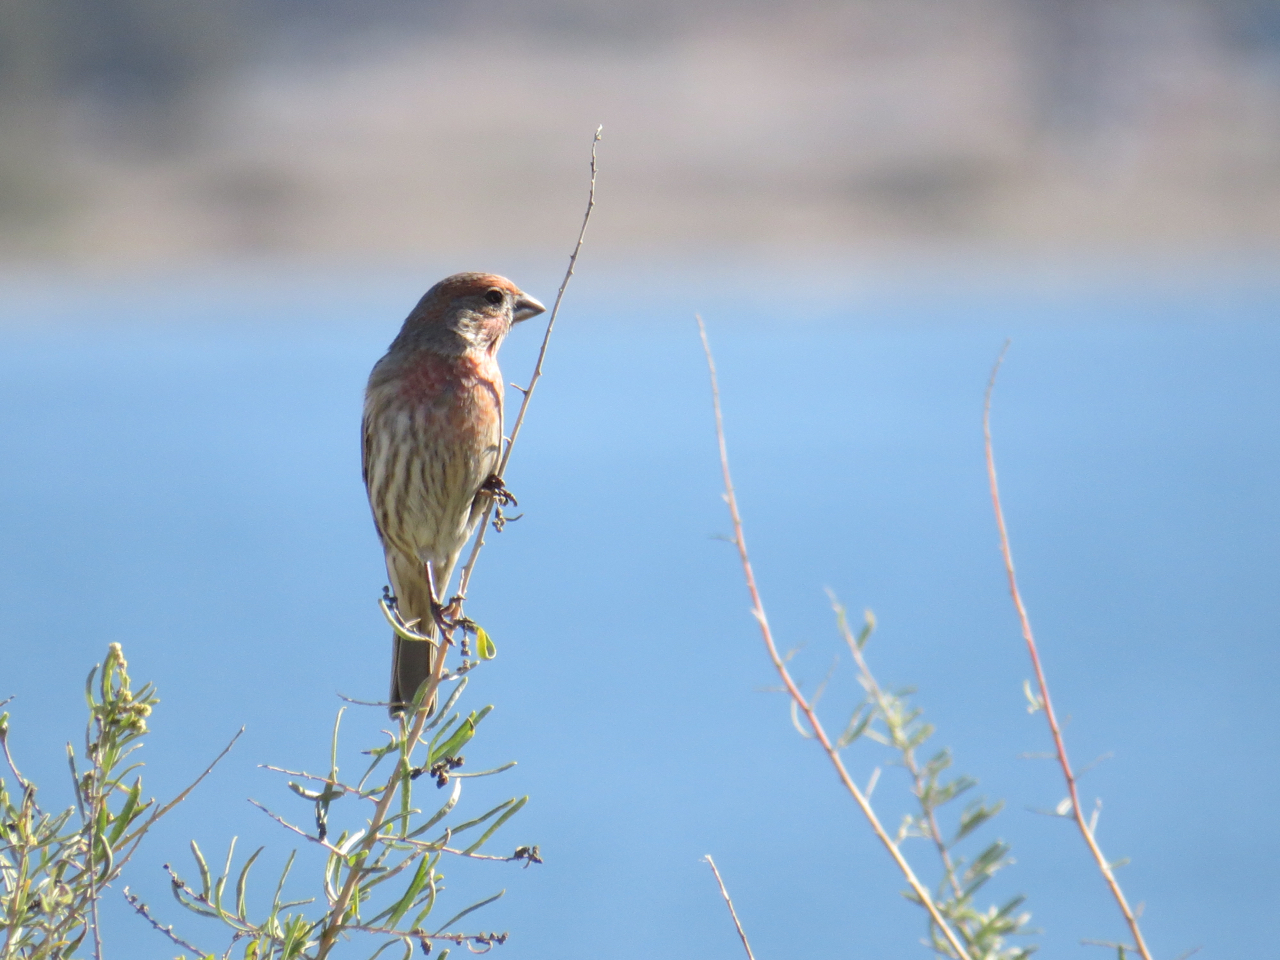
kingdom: Animalia
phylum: Chordata
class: Aves
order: Passeriformes
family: Fringillidae
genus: Haemorhous
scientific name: Haemorhous mexicanus
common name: House finch
